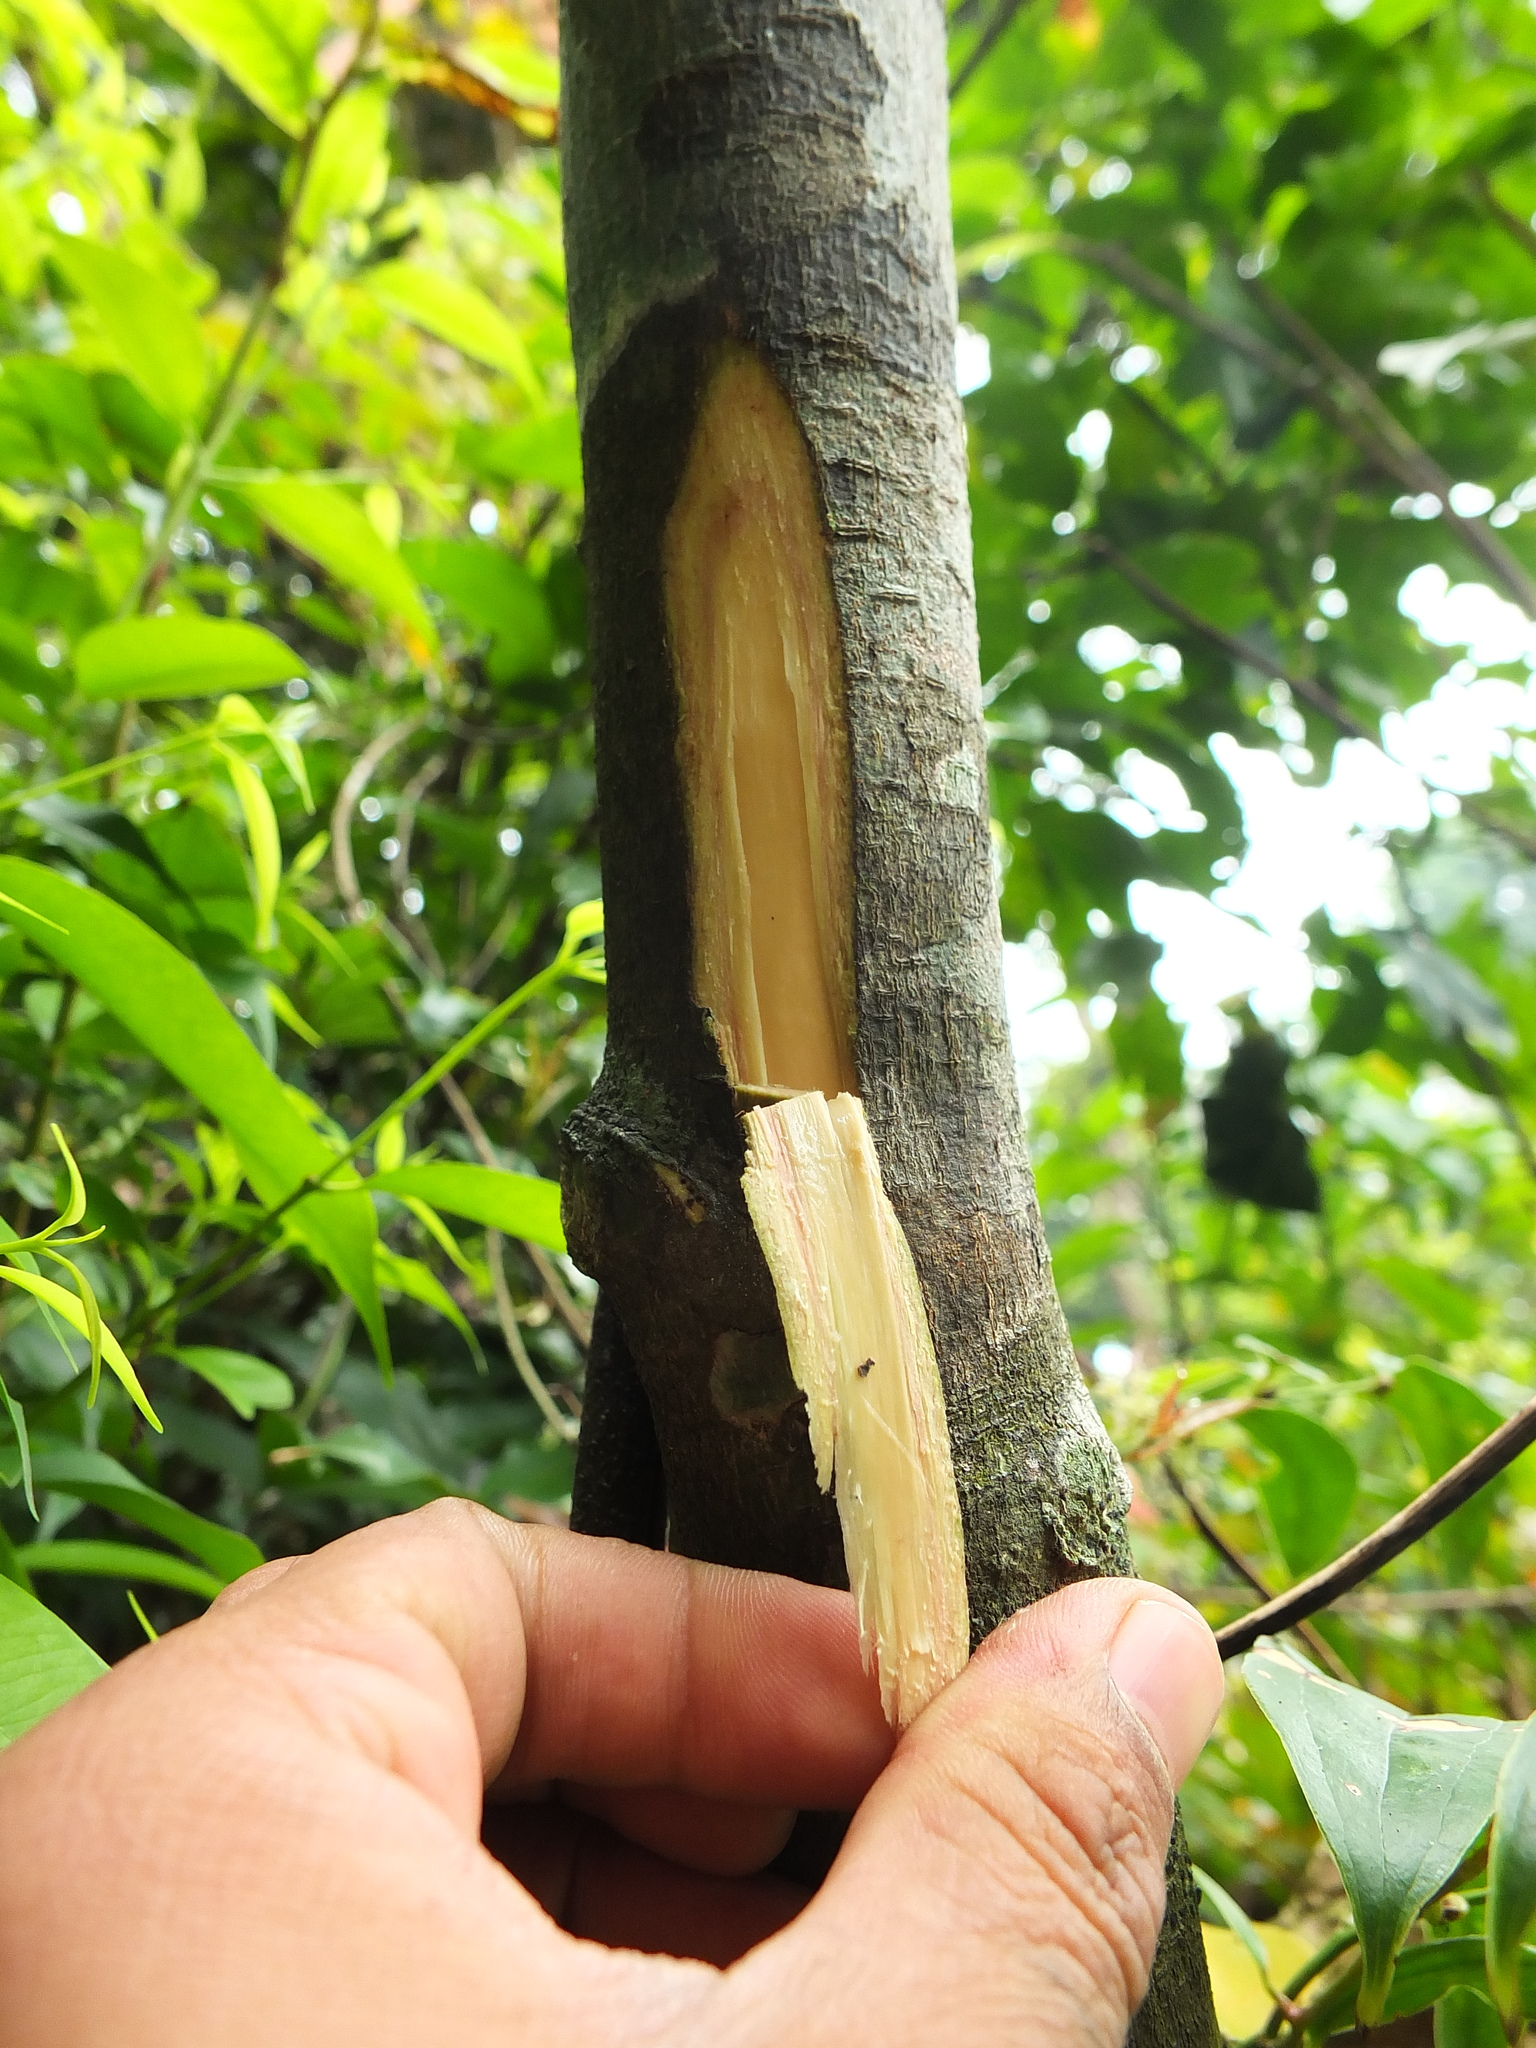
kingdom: Plantae
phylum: Tracheophyta
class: Magnoliopsida
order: Sapindales
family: Rutaceae
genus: Glycosmis
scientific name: Glycosmis macrocarpa
